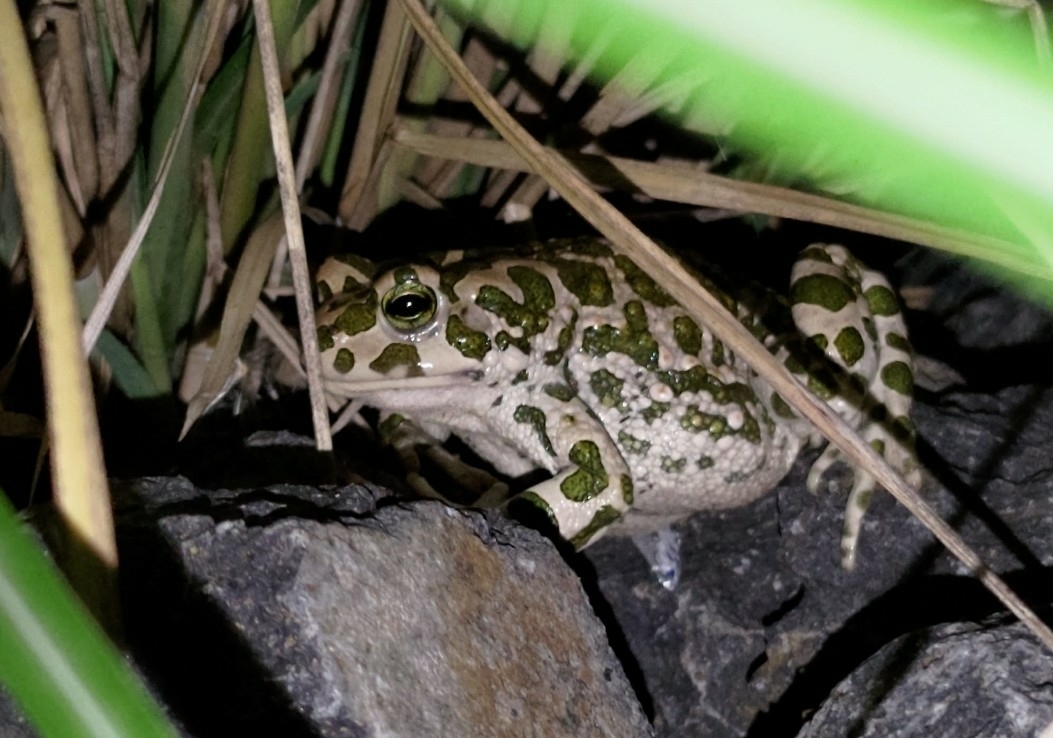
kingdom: Animalia
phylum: Chordata
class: Amphibia
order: Anura
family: Bufonidae
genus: Bufotes
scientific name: Bufotes viridis
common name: European green toad
